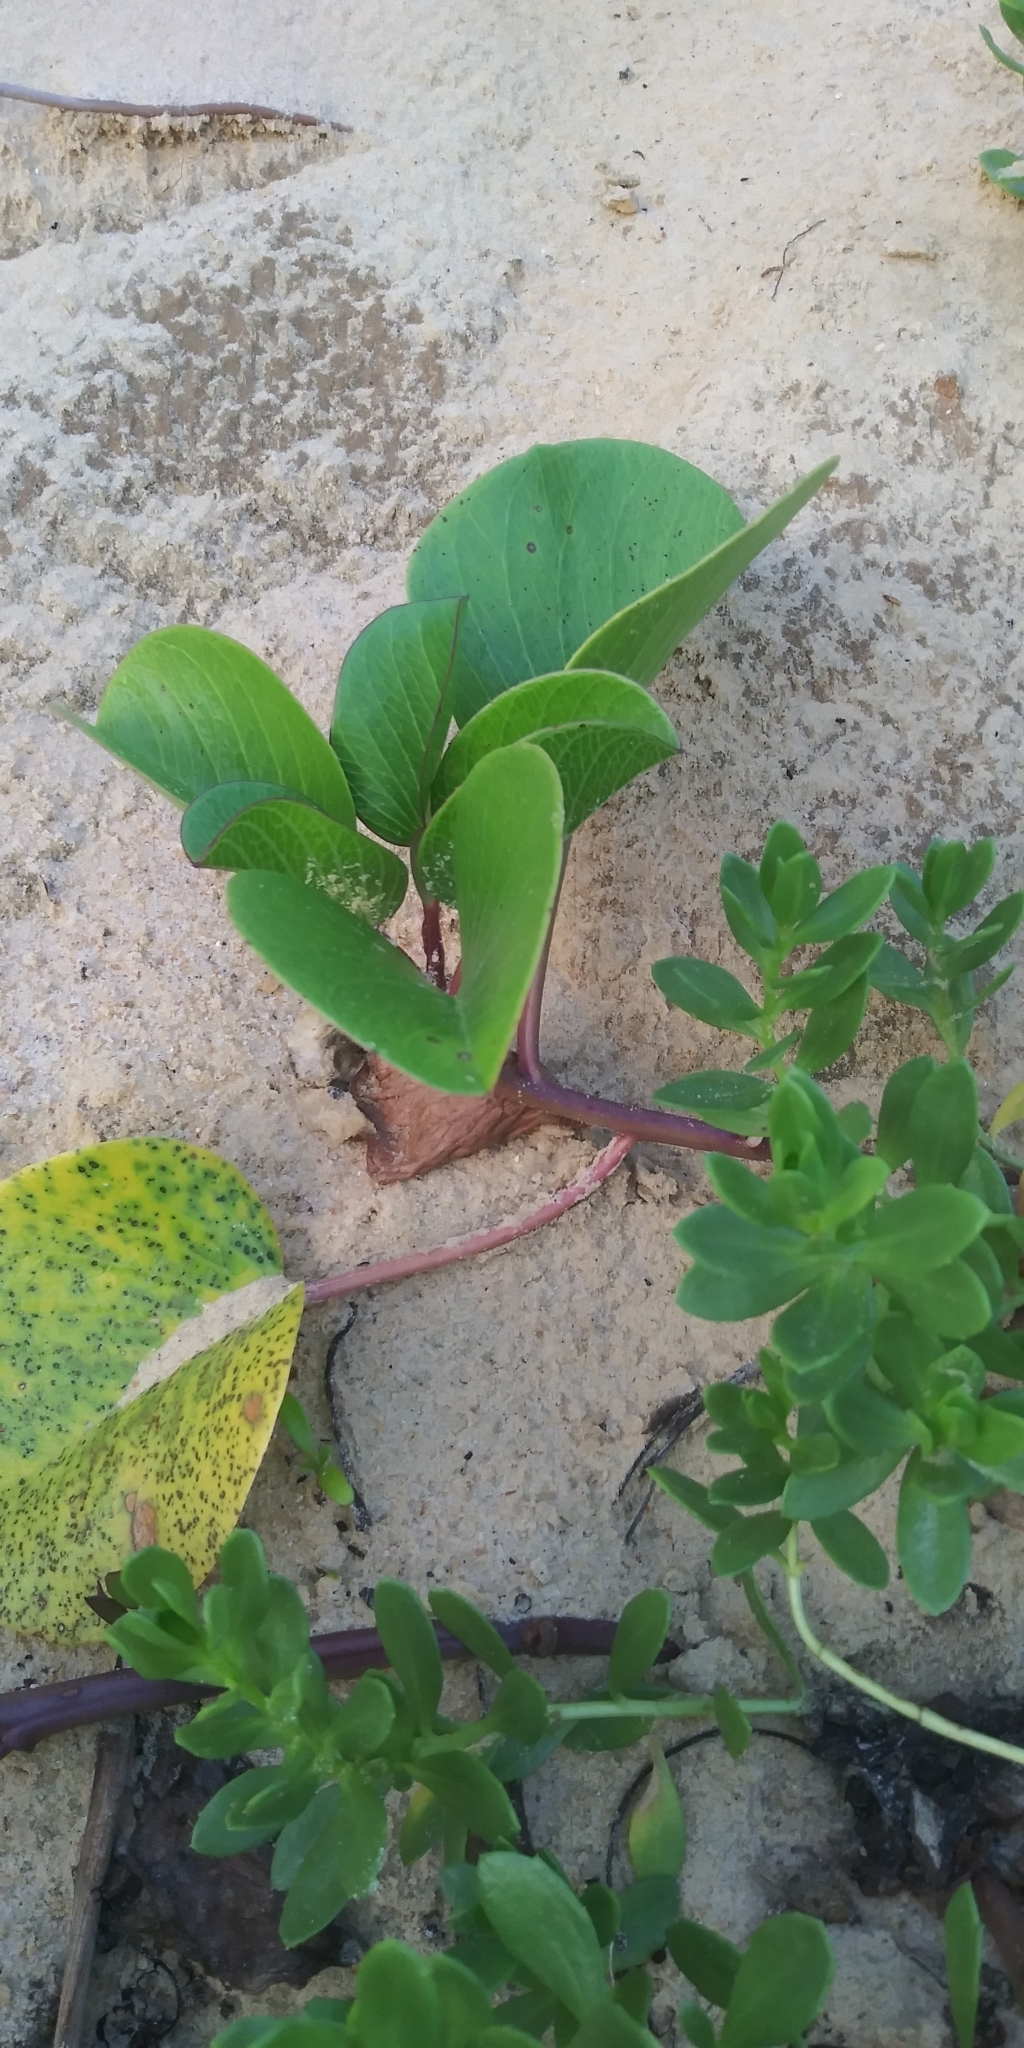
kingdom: Plantae
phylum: Tracheophyta
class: Magnoliopsida
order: Solanales
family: Convolvulaceae
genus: Ipomoea
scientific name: Ipomoea pes-caprae
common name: Beach morning glory
